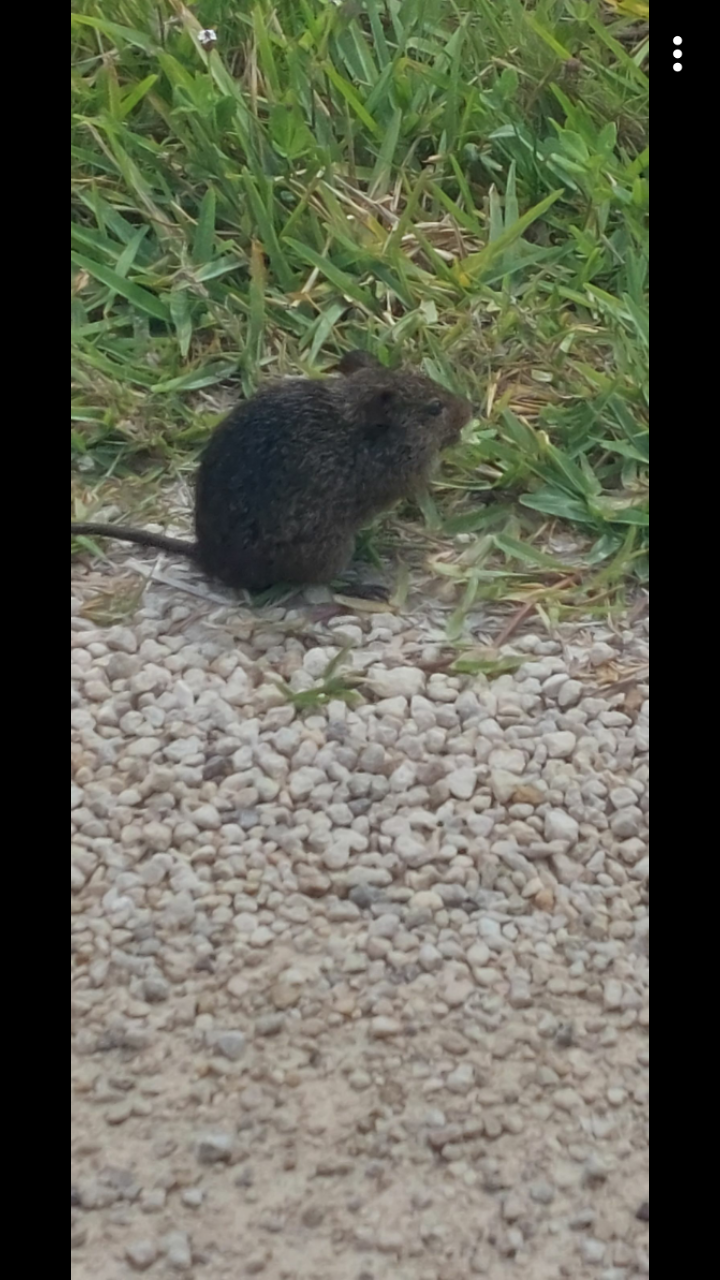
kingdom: Animalia
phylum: Chordata
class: Mammalia
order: Rodentia
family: Cricetidae
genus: Sigmodon
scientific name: Sigmodon hispidus
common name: Hispid cotton rat
